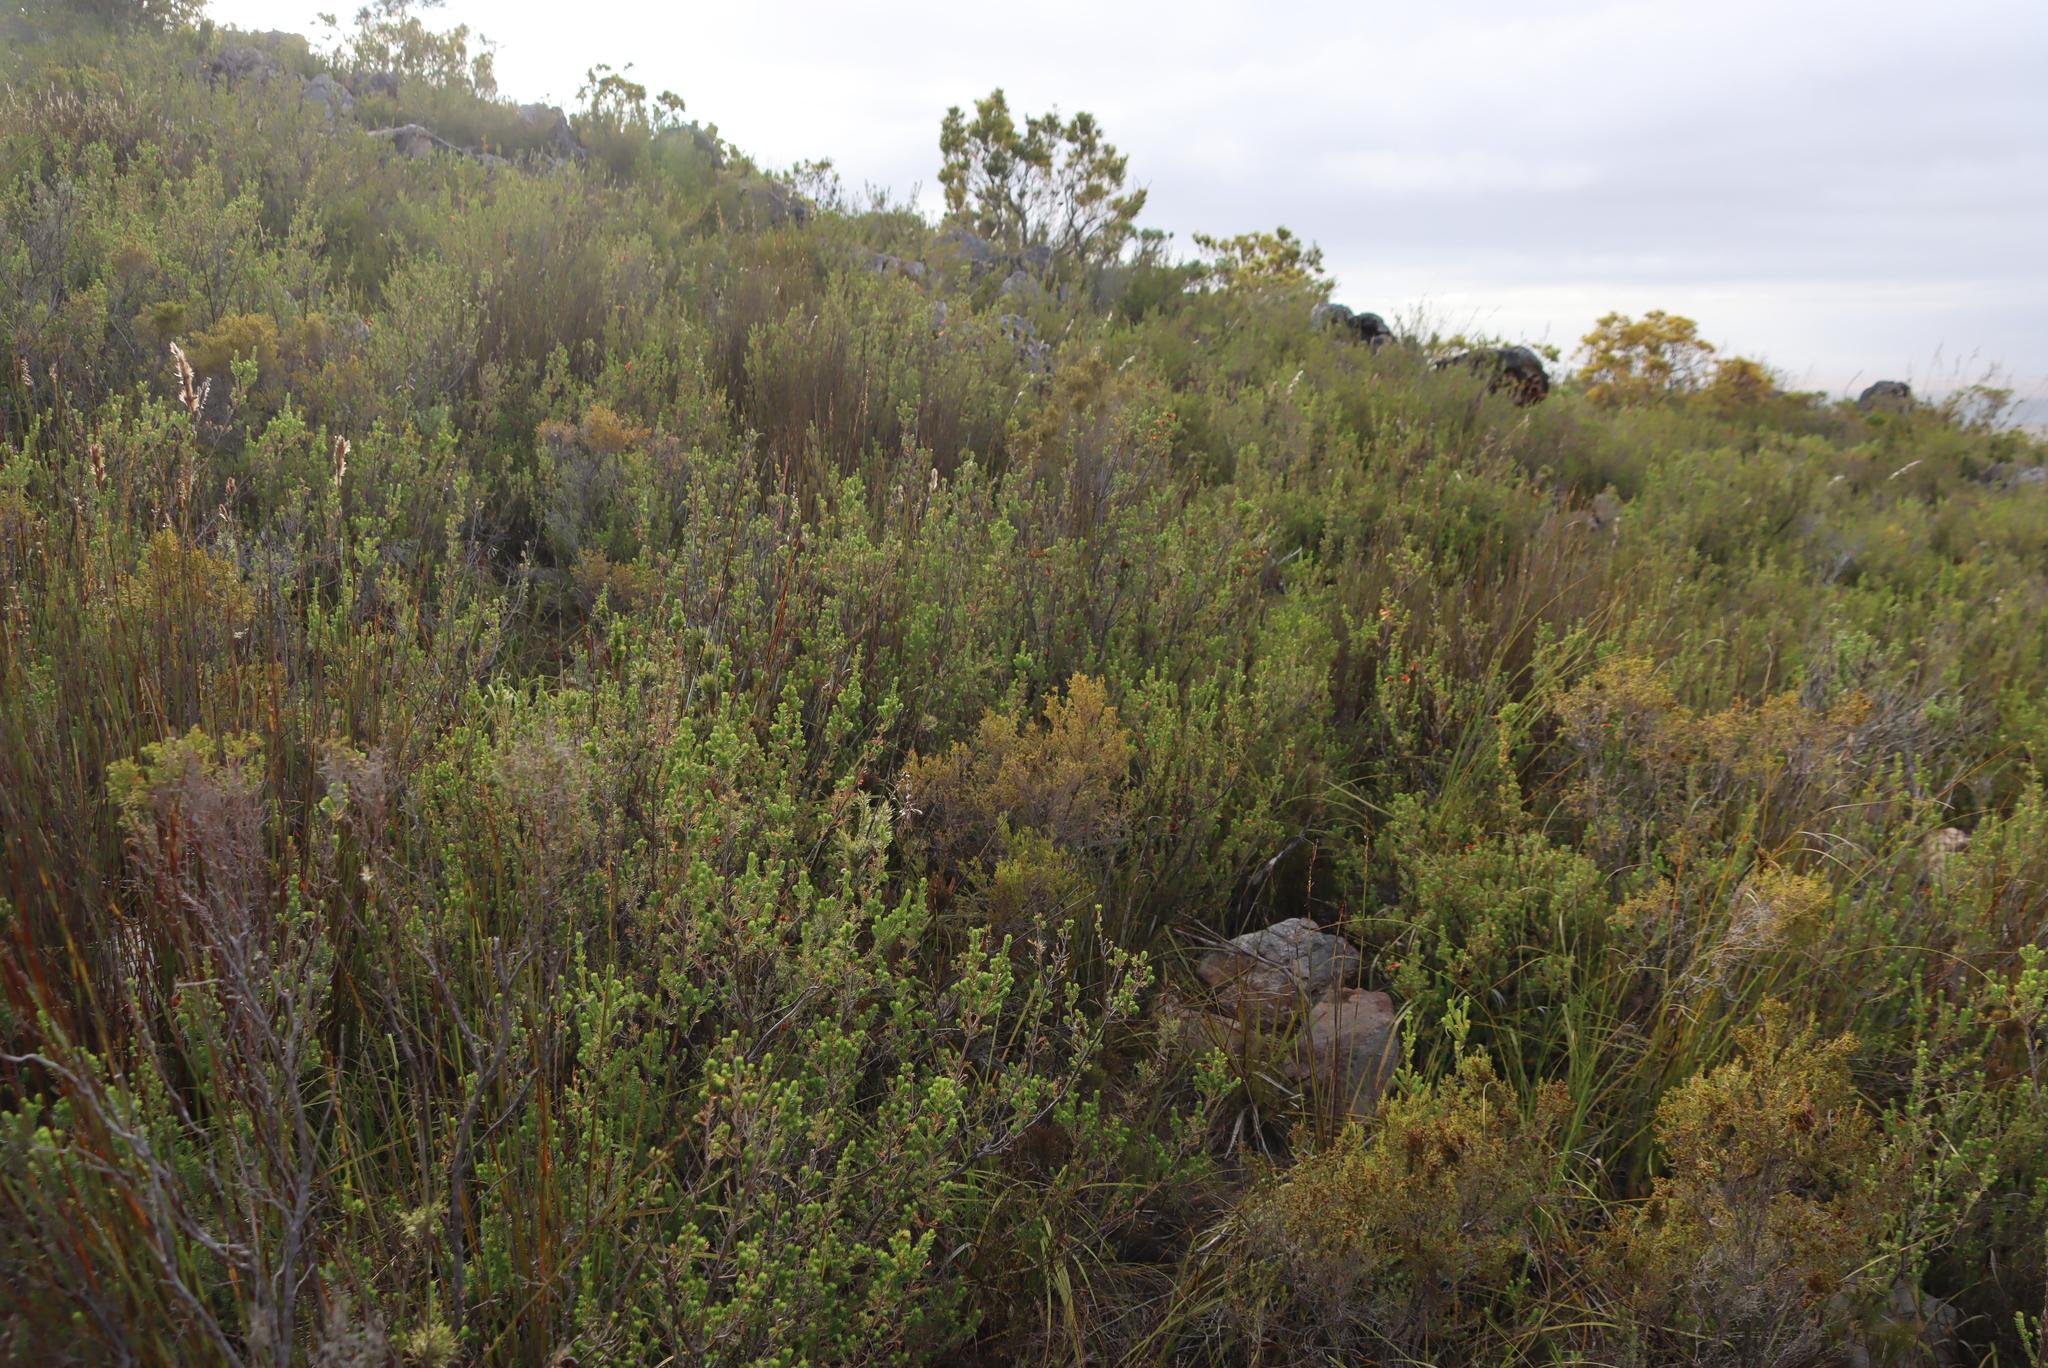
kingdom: Plantae
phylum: Tracheophyta
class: Magnoliopsida
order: Ericales
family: Ericaceae
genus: Erica
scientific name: Erica discolor
